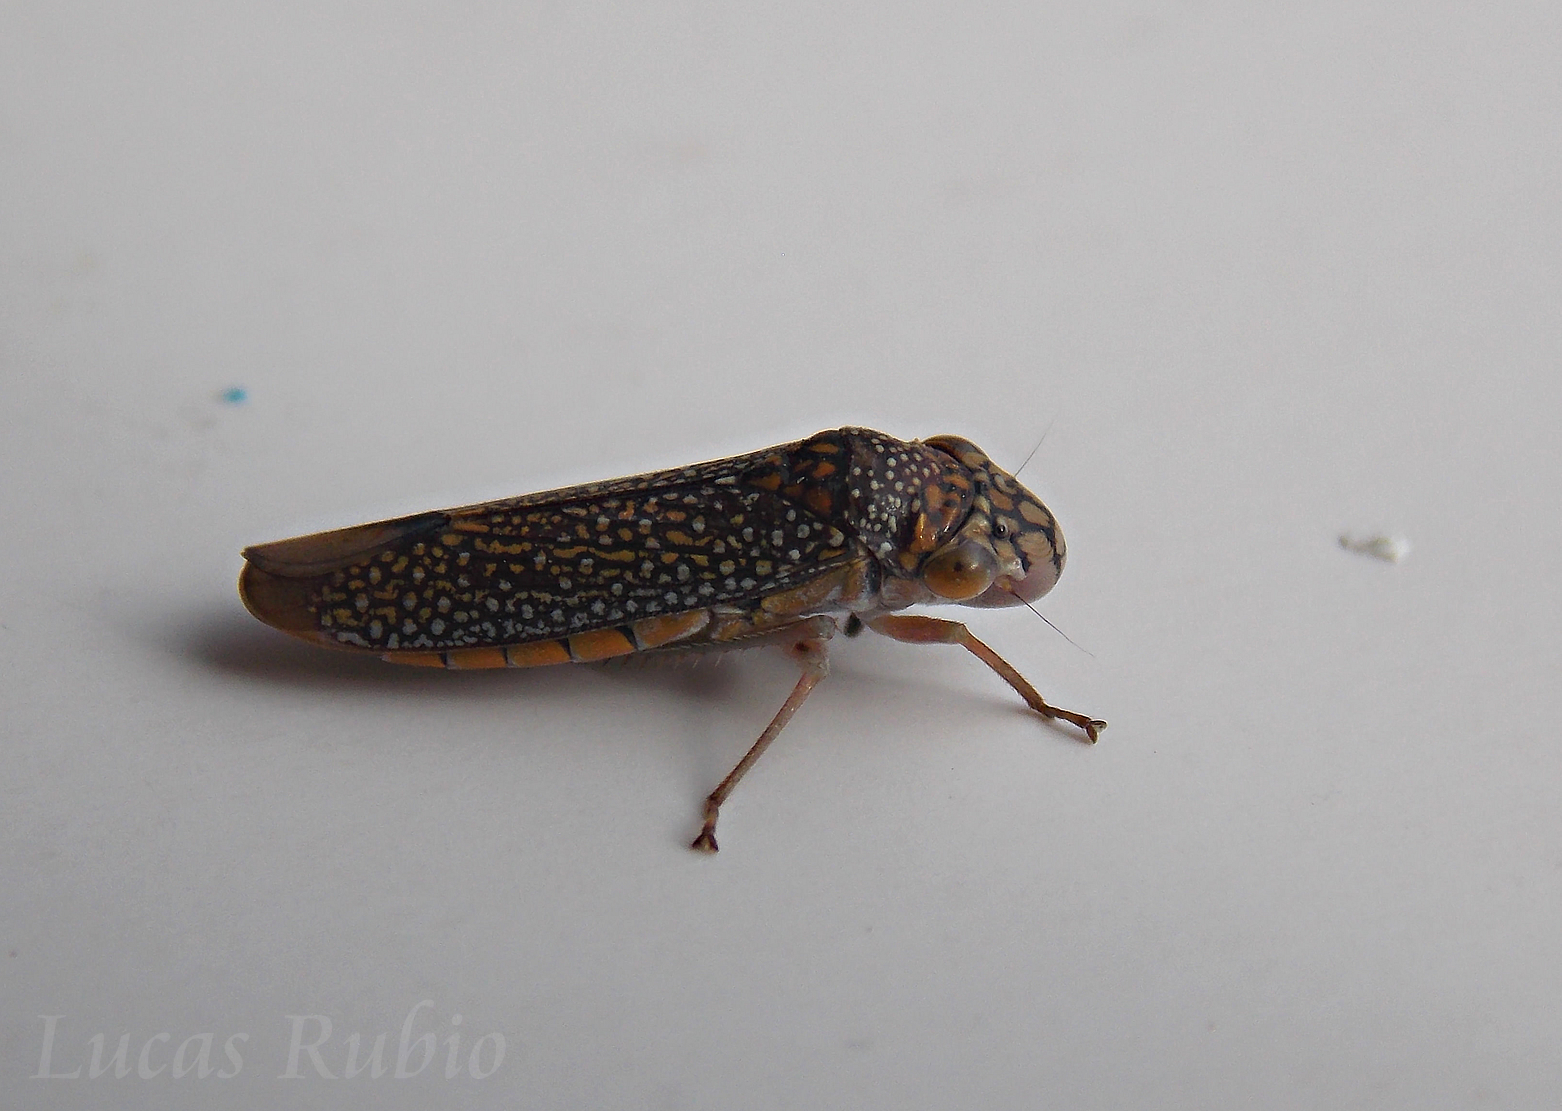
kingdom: Animalia
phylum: Arthropoda
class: Insecta
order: Hemiptera
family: Cicadellidae
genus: Molomea
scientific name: Molomea lineiceps
